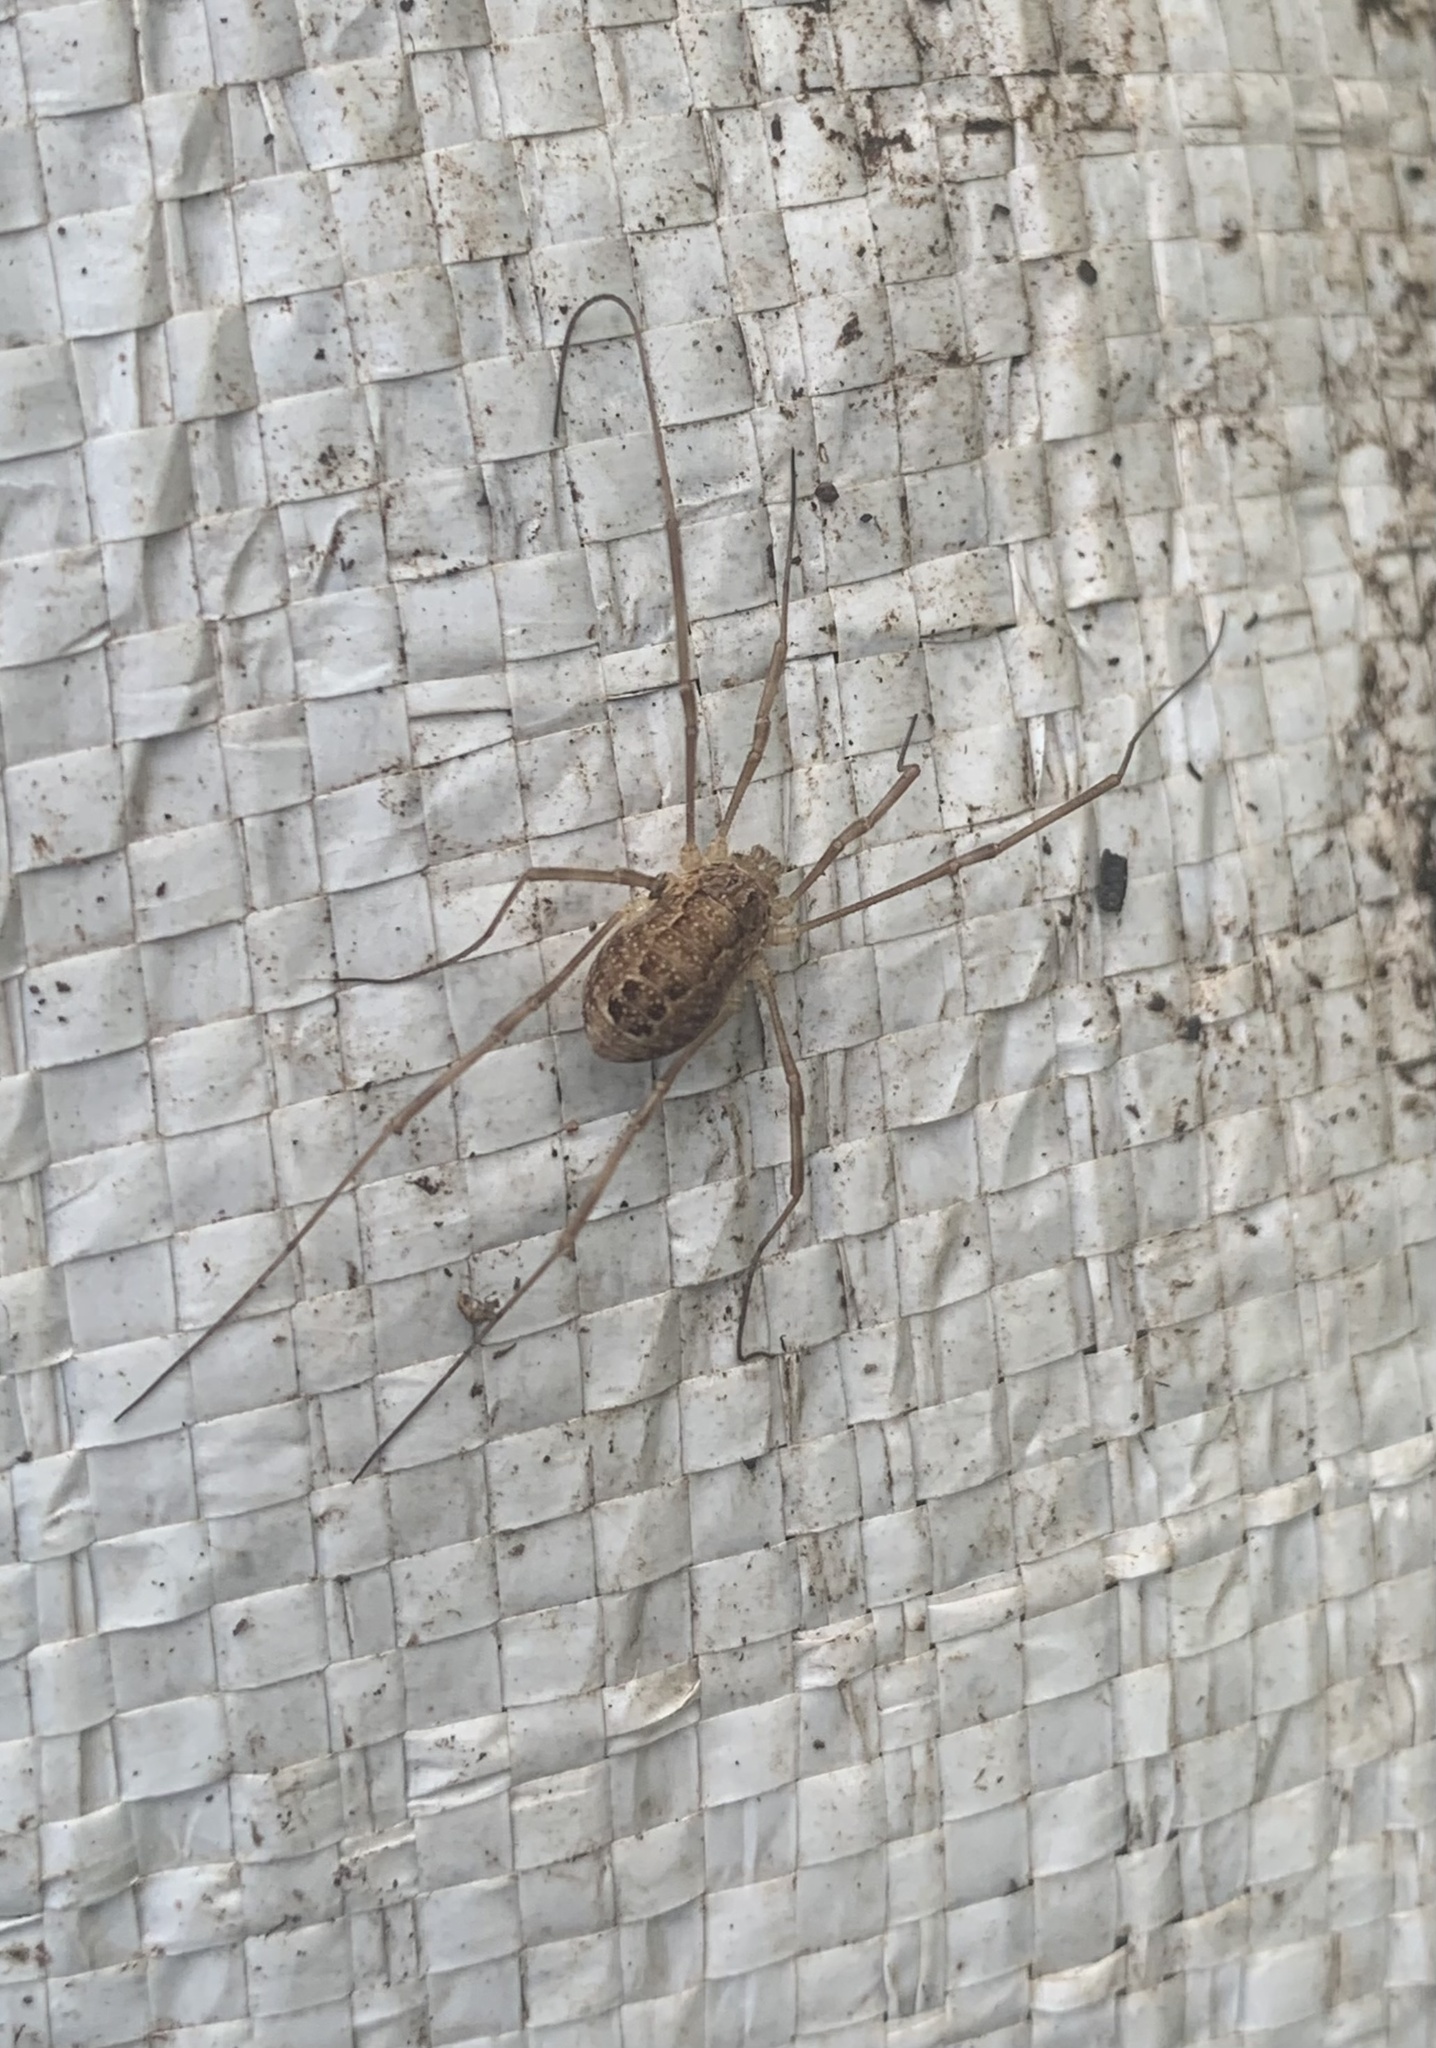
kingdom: Animalia
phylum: Arthropoda
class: Arachnida
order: Opiliones
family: Phalangiidae
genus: Rilaena
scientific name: Rilaena triangularis
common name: Spring harvestman
